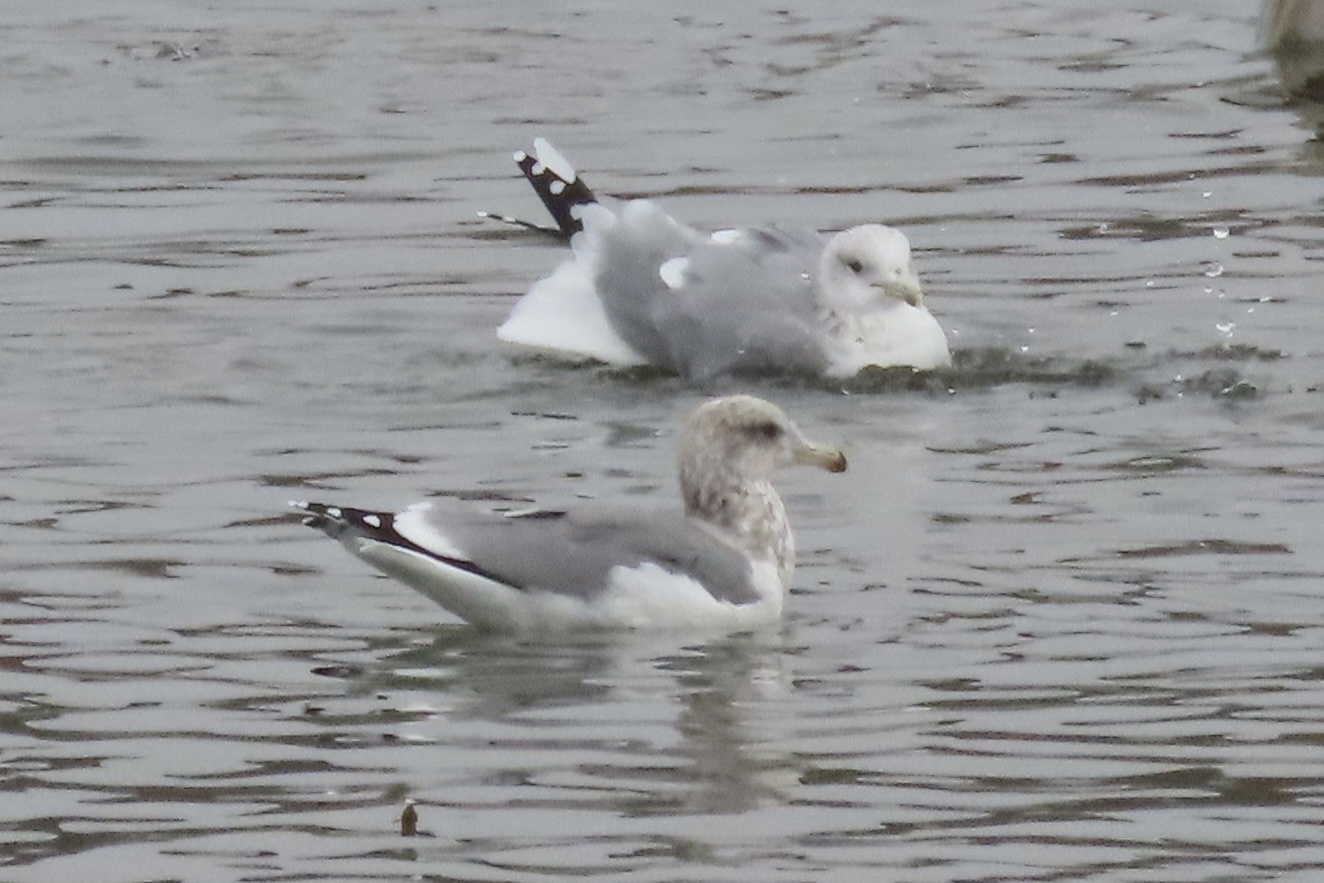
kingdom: Animalia
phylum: Chordata
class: Aves
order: Charadriiformes
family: Laridae
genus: Larus
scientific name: Larus californicus
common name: California gull
